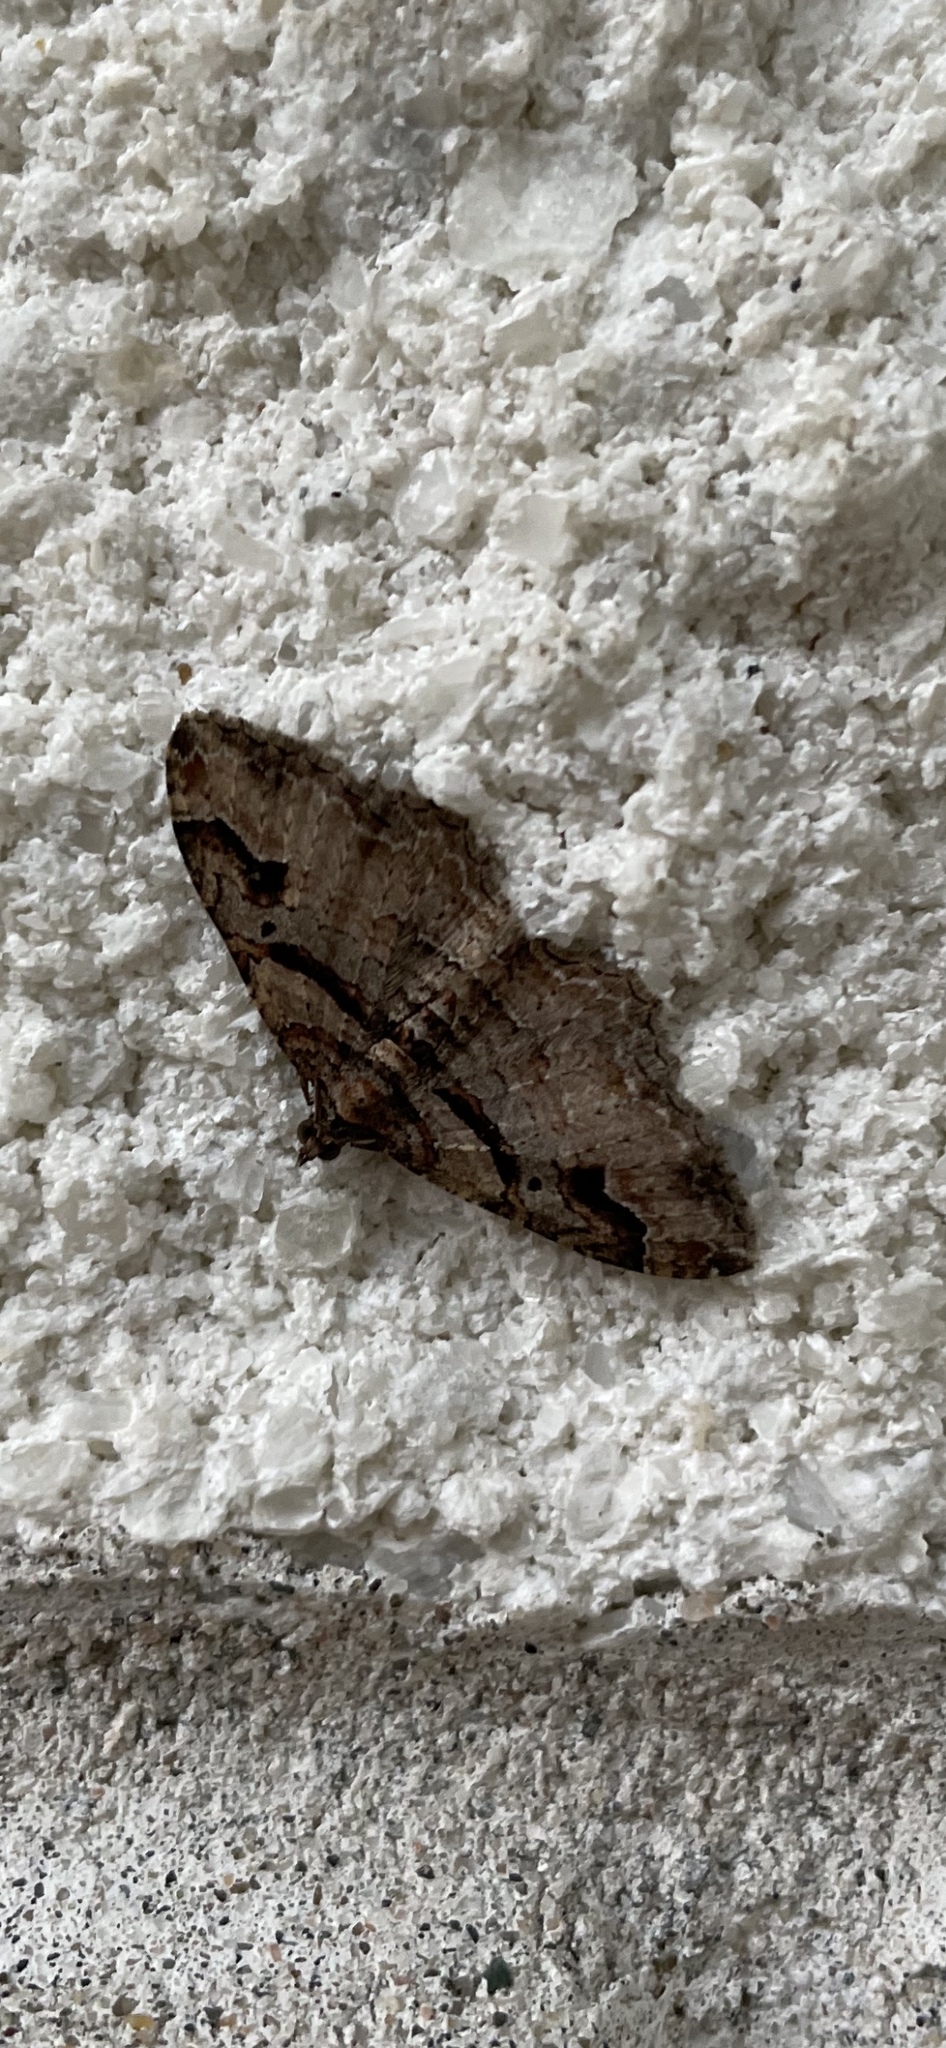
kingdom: Animalia
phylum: Arthropoda
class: Insecta
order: Lepidoptera
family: Geometridae
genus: Costaconvexa
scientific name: Costaconvexa centrostrigaria
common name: Bent-line carpet
